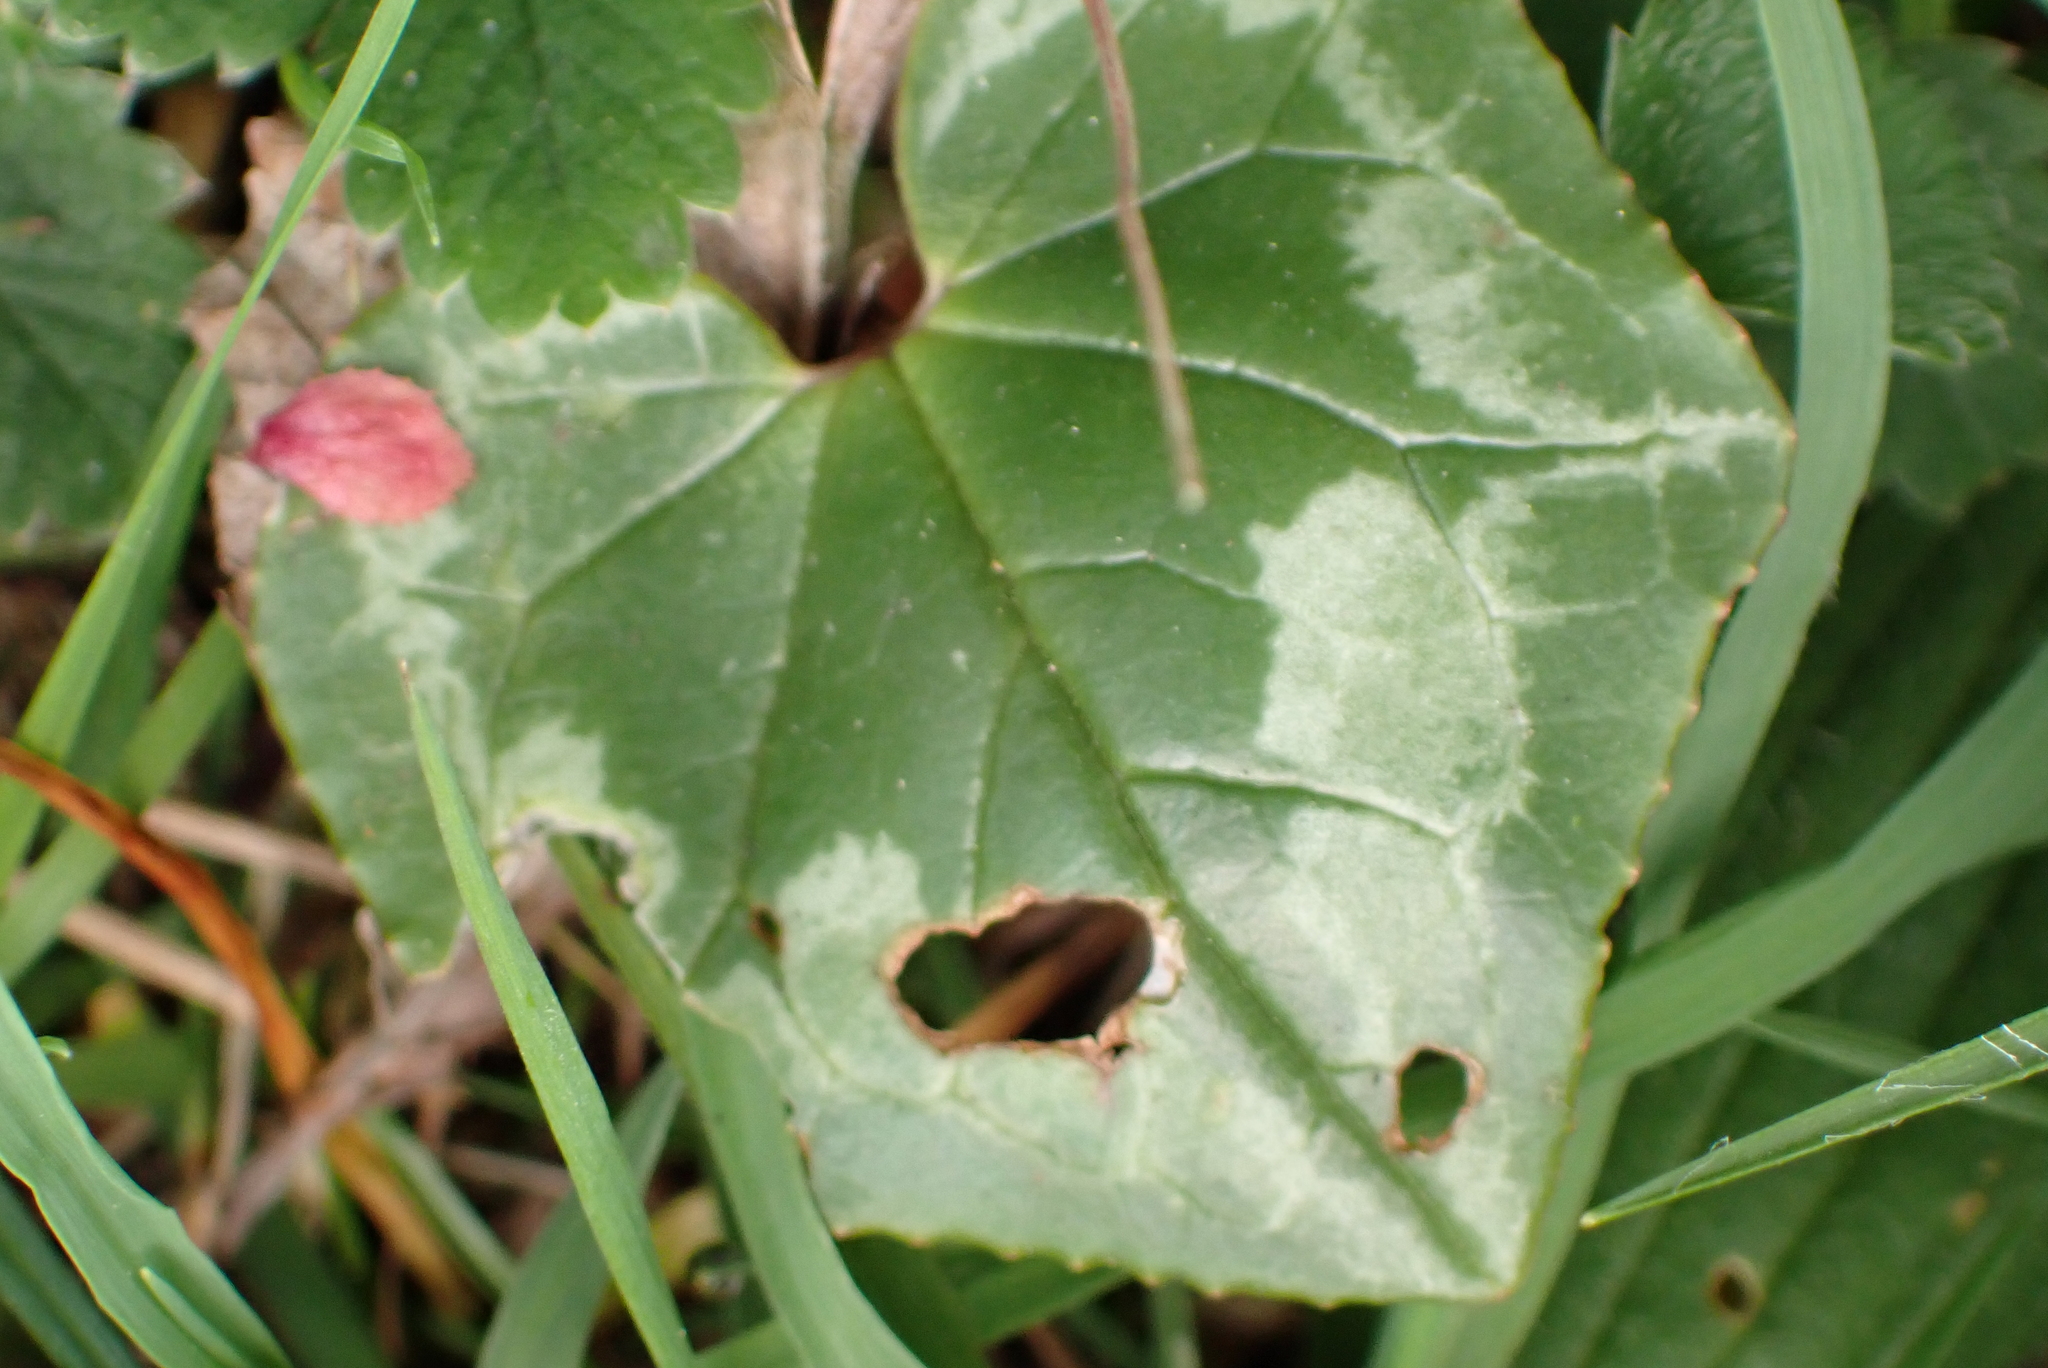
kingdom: Plantae
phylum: Tracheophyta
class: Magnoliopsida
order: Ericales
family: Primulaceae
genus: Cyclamen
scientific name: Cyclamen hederifolium
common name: Sowbread
